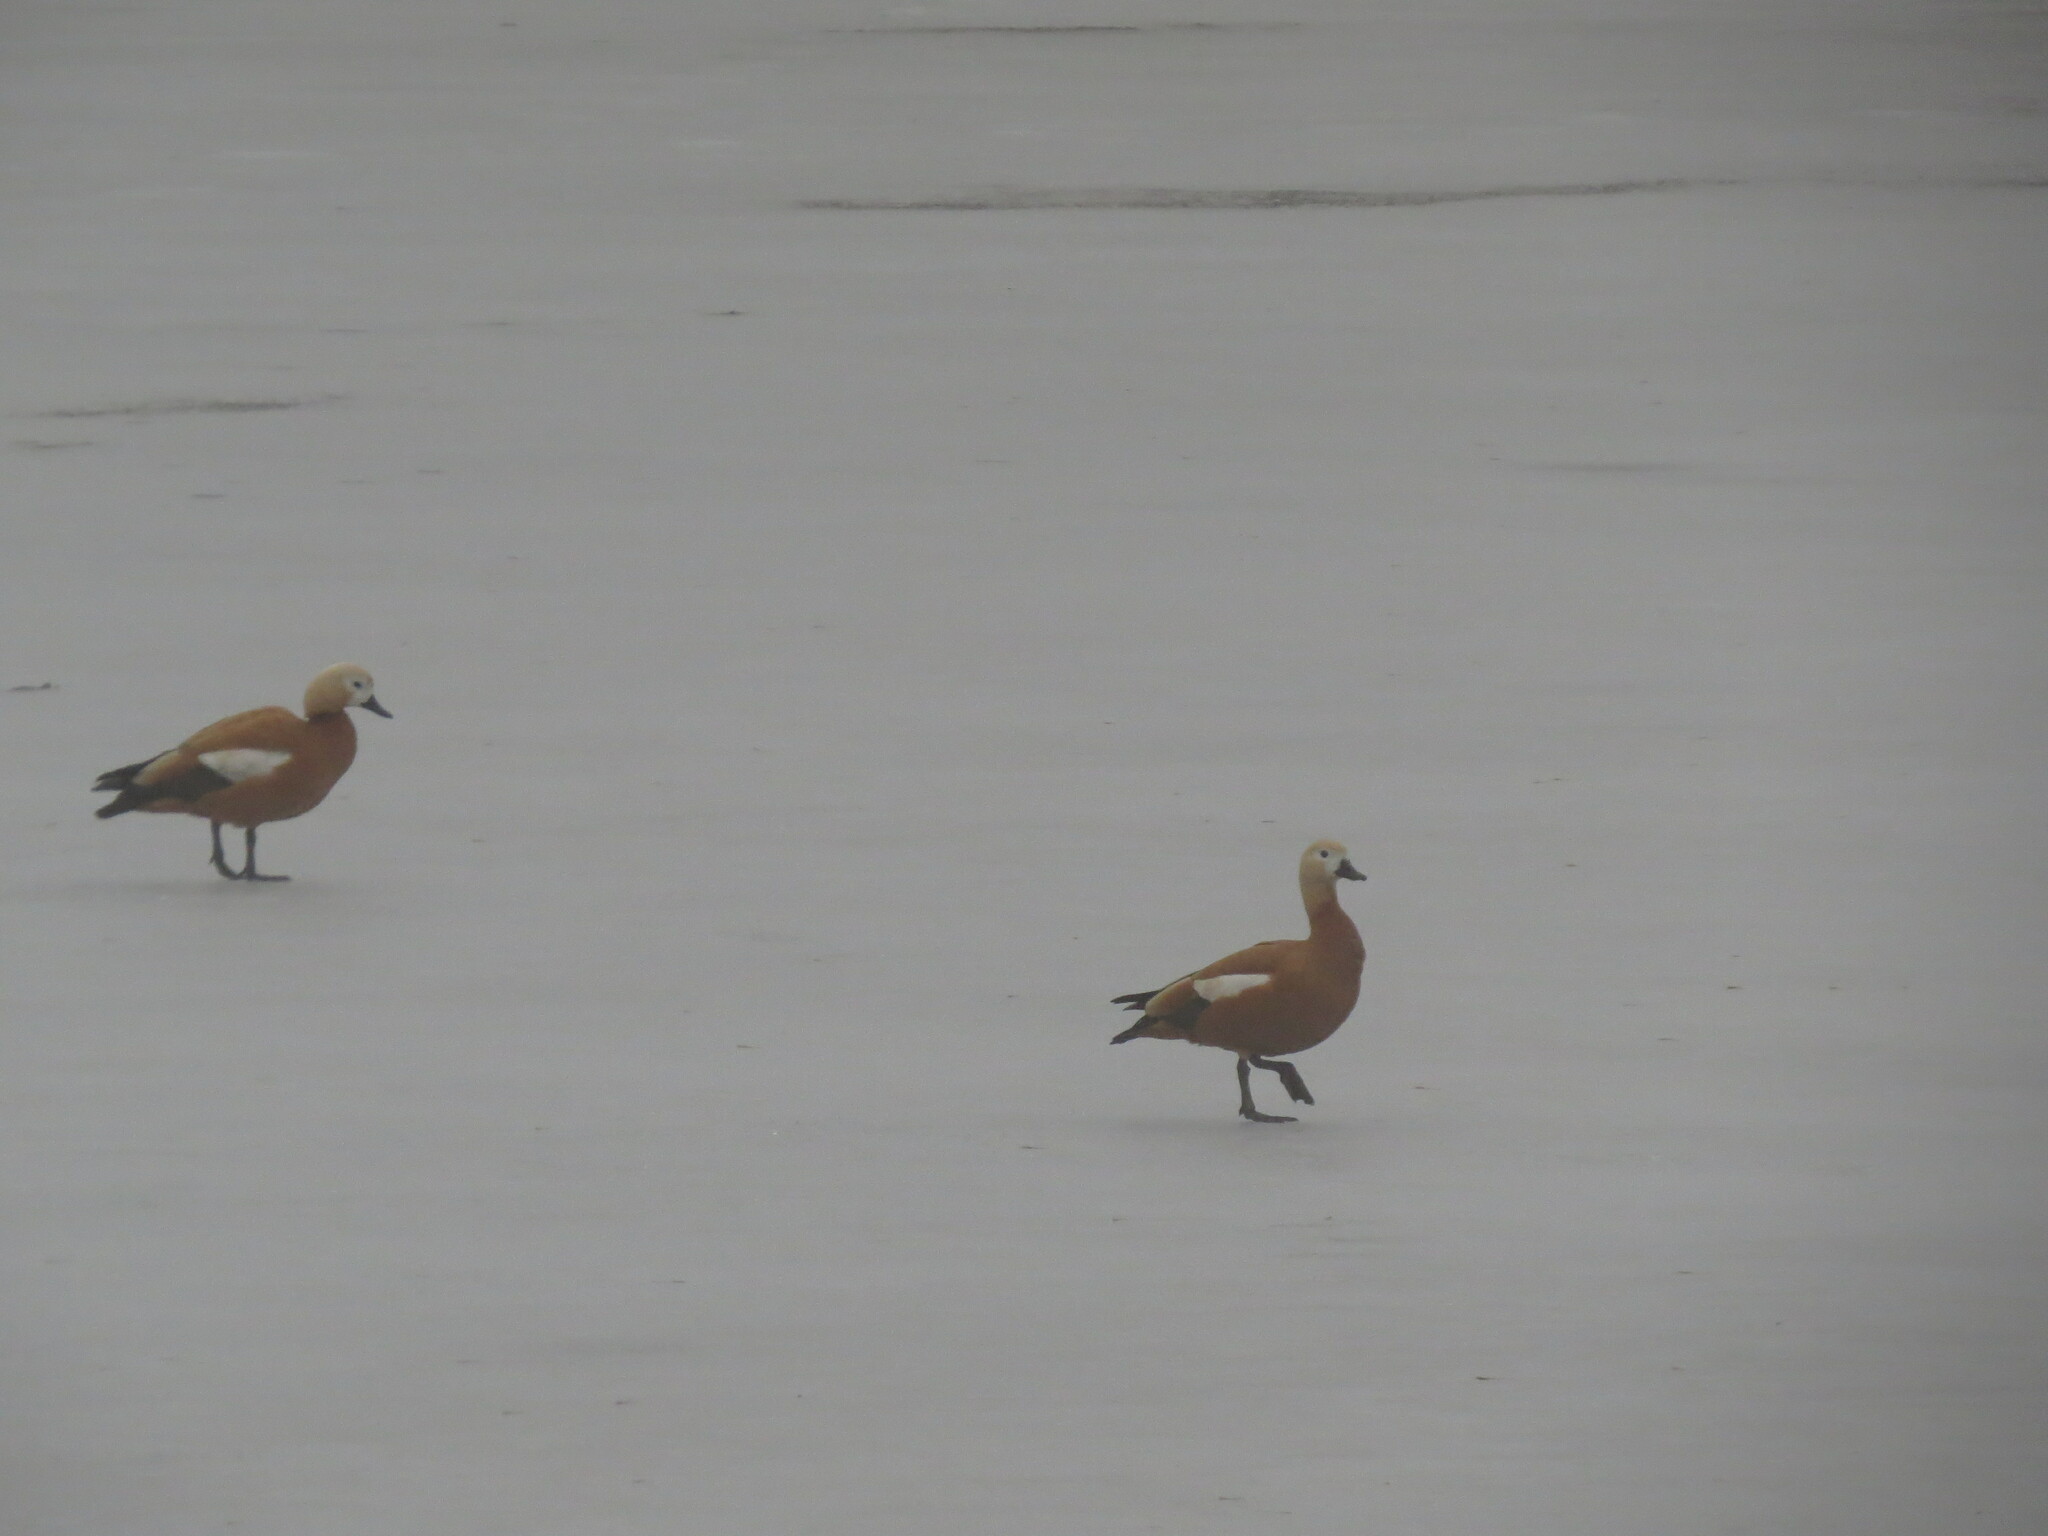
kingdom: Animalia
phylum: Chordata
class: Aves
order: Anseriformes
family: Anatidae
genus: Tadorna
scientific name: Tadorna ferruginea
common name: Ruddy shelduck
